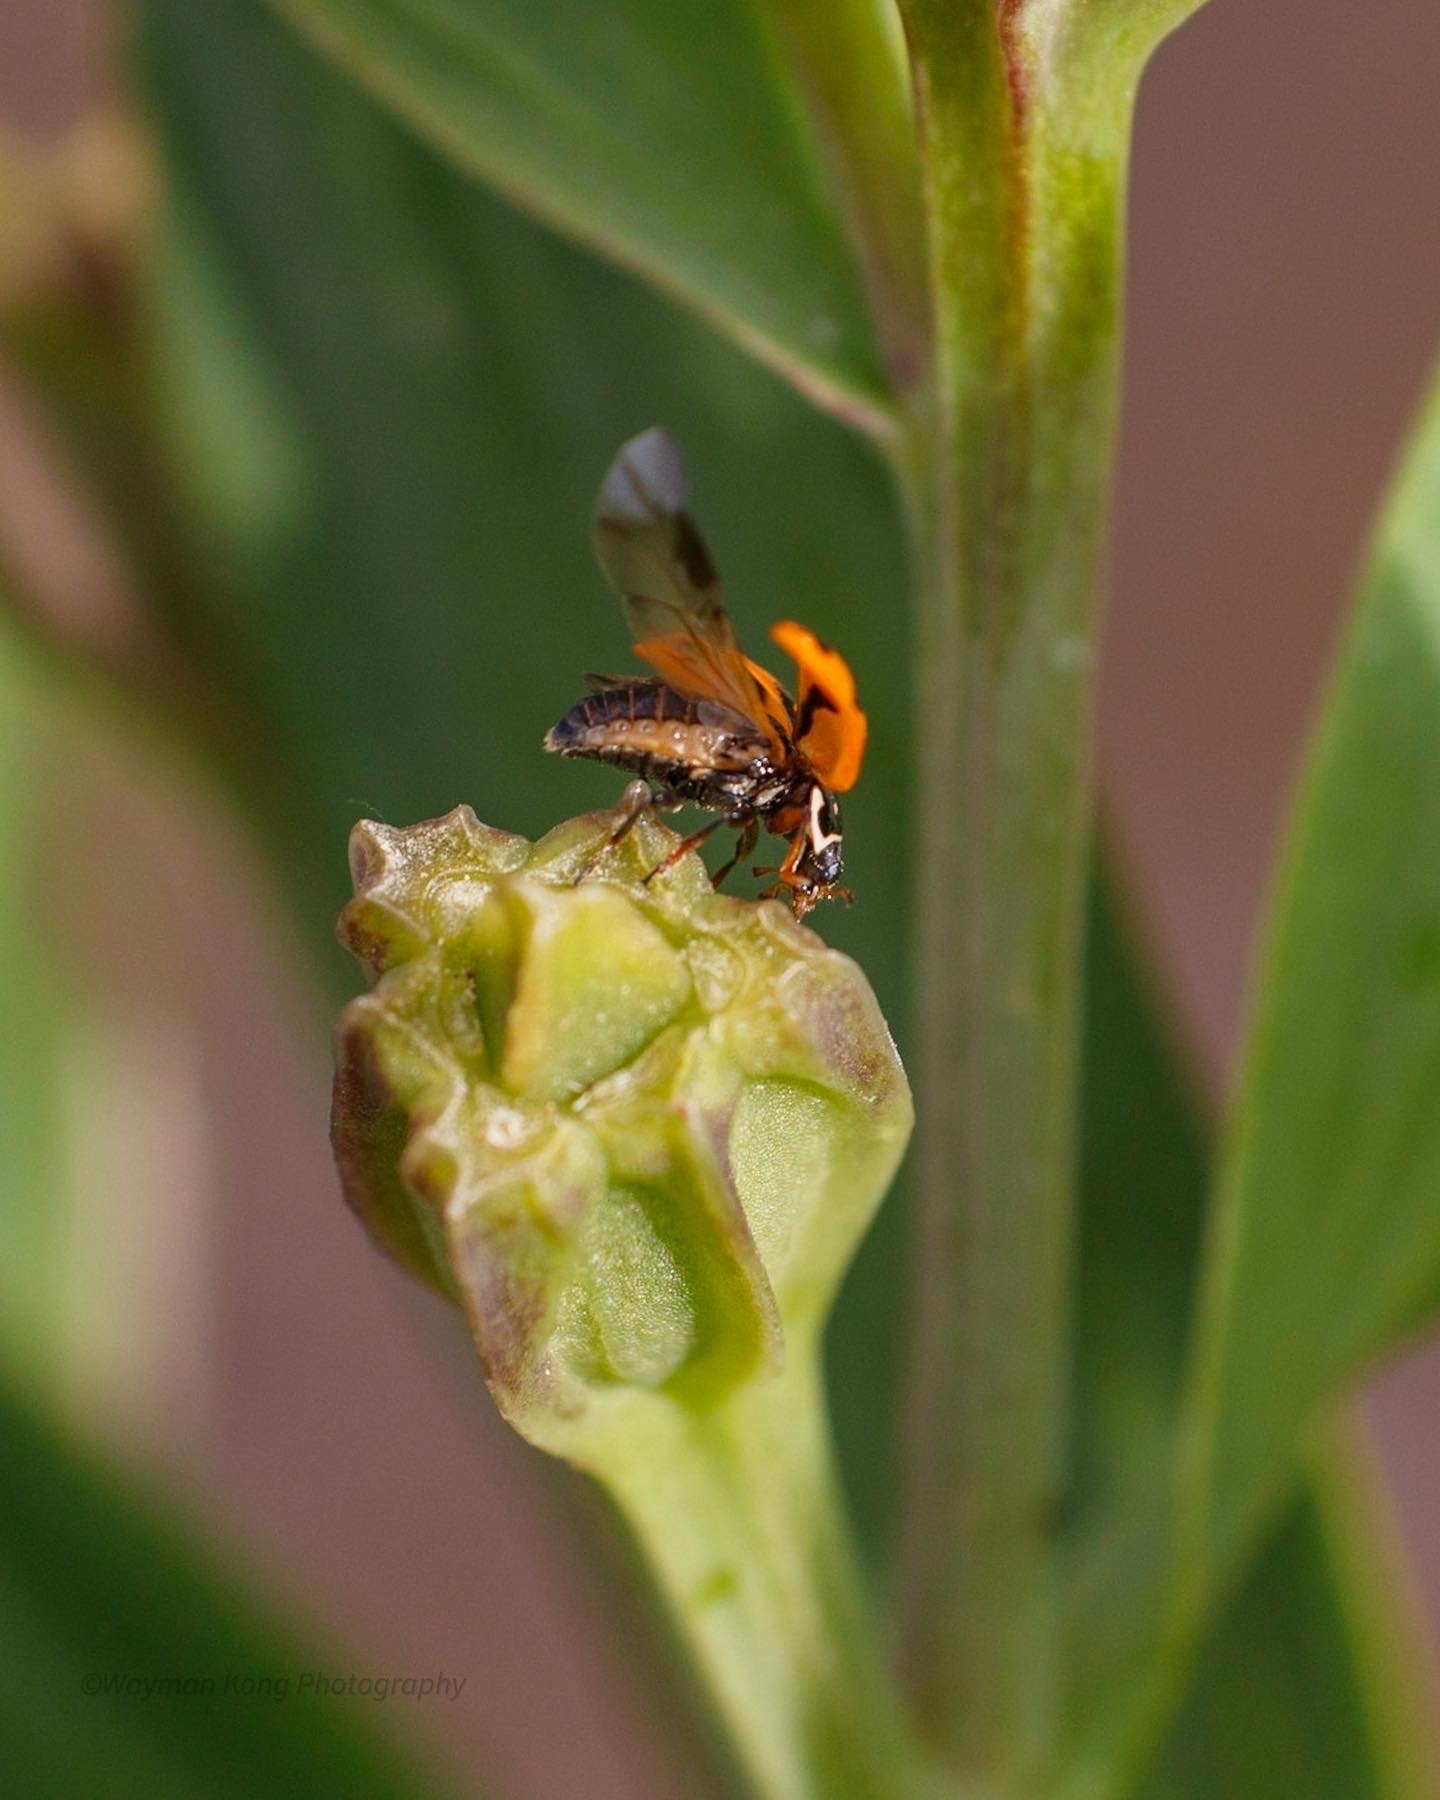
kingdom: Animalia
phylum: Arthropoda
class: Insecta
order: Coleoptera
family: Coccinellidae
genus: Hippodamia
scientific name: Hippodamia variegata
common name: Ladybird beetle
